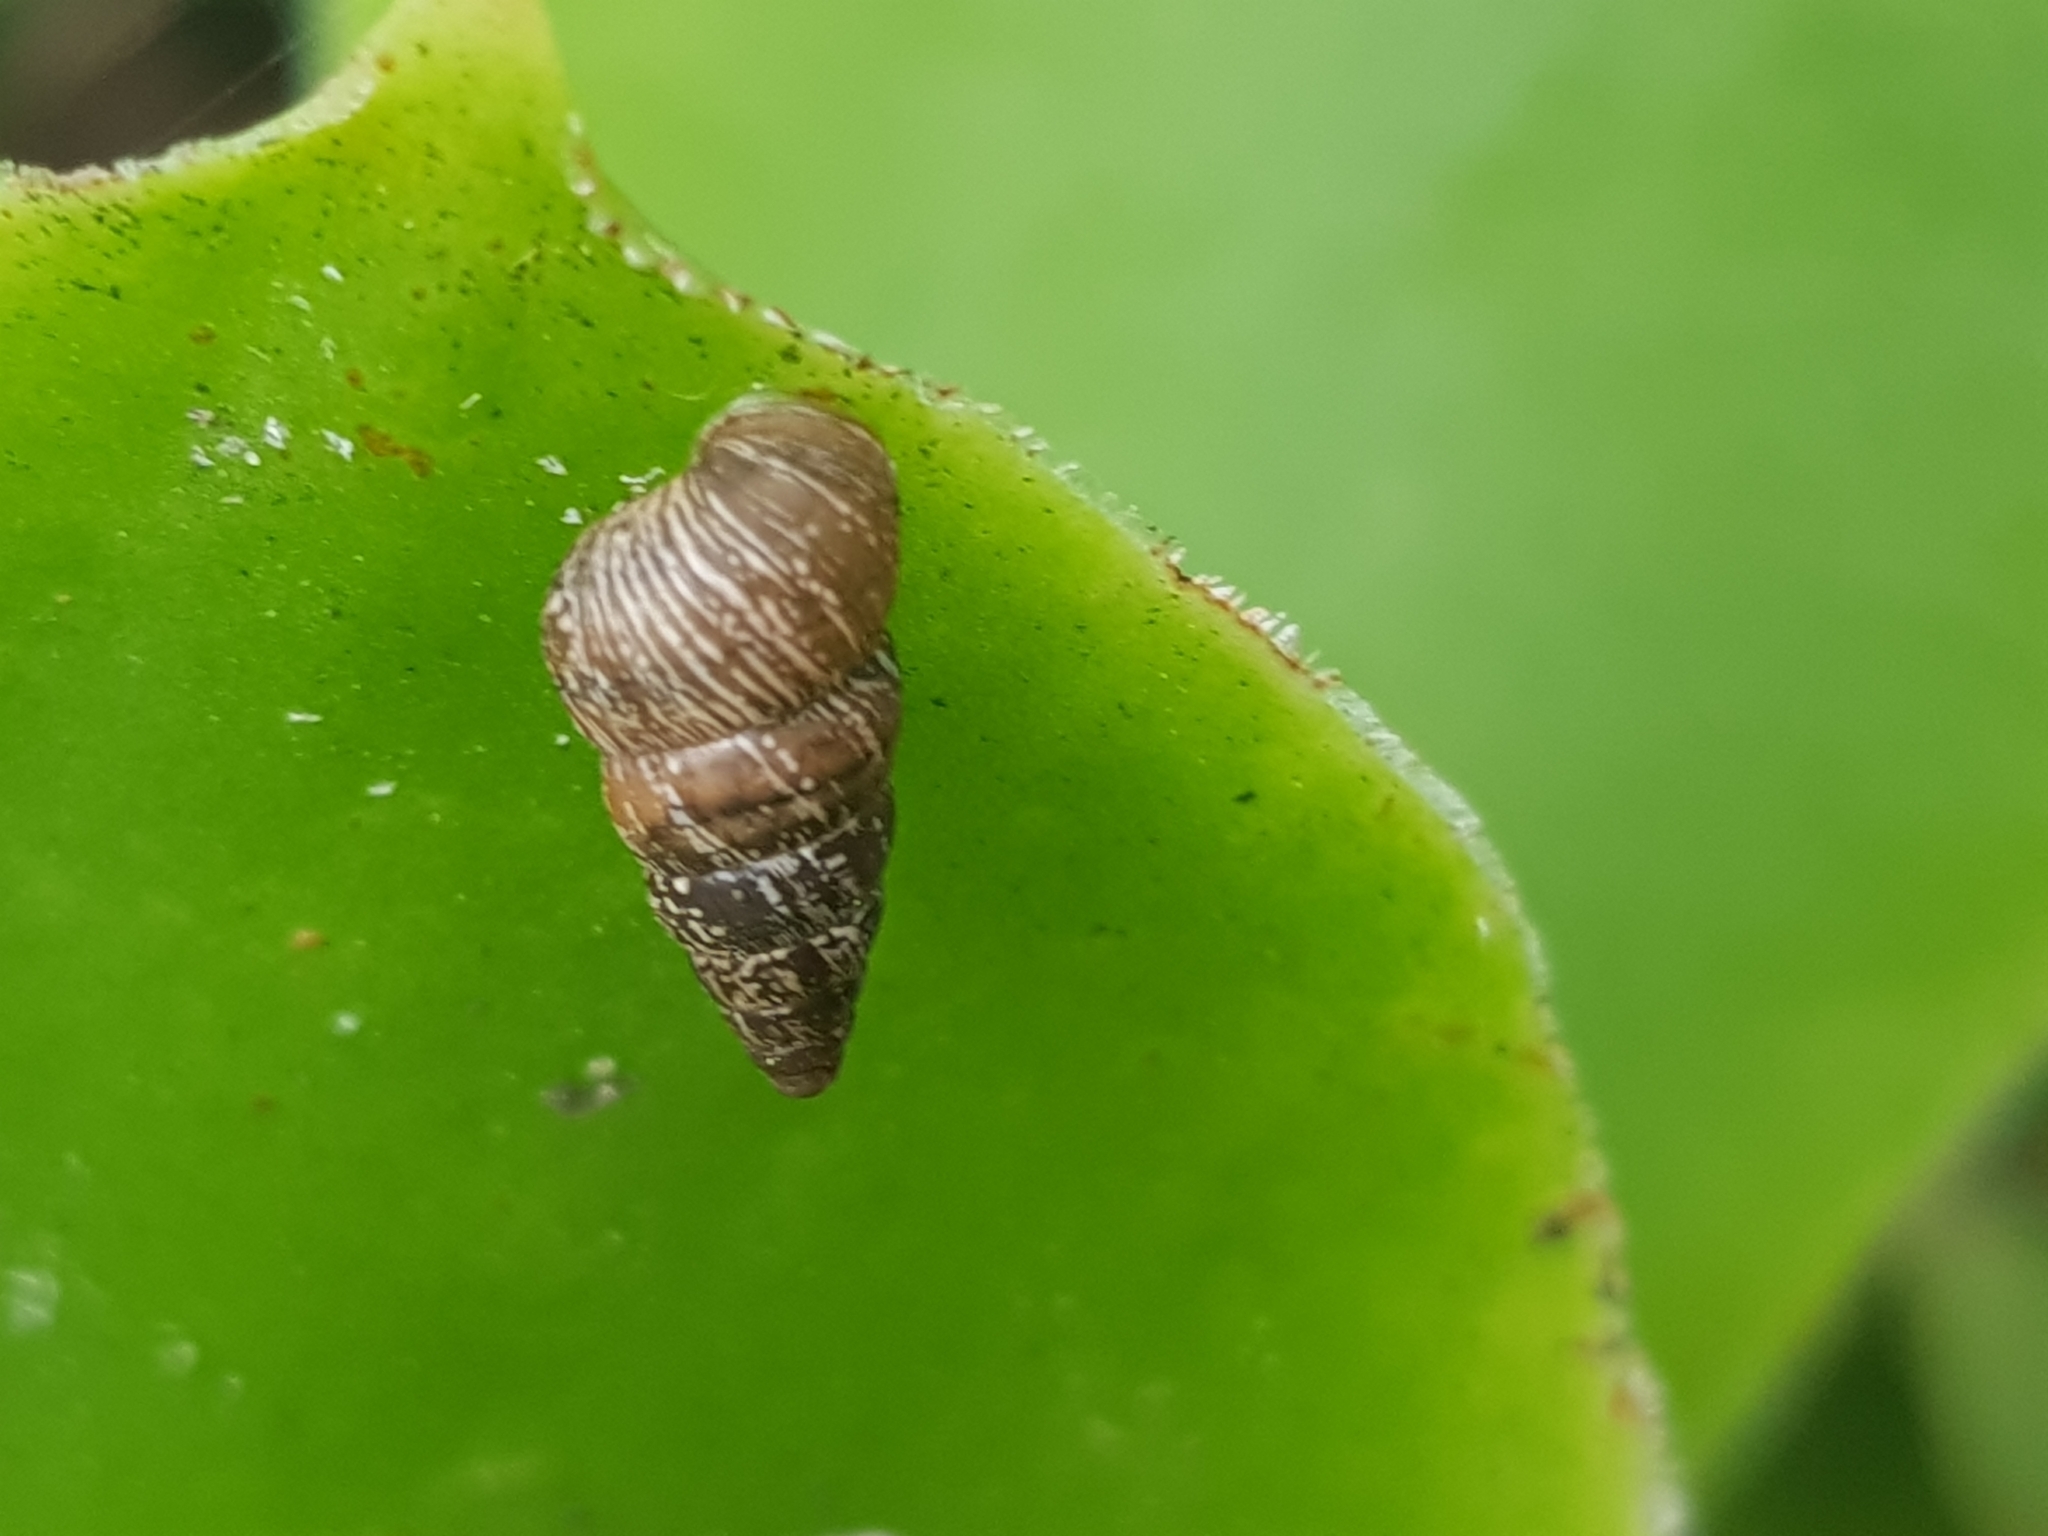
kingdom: Animalia
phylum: Mollusca
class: Gastropoda
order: Stylommatophora
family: Geomitridae
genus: Cochlicella
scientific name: Cochlicella barbara
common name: Potbellied helicellid
